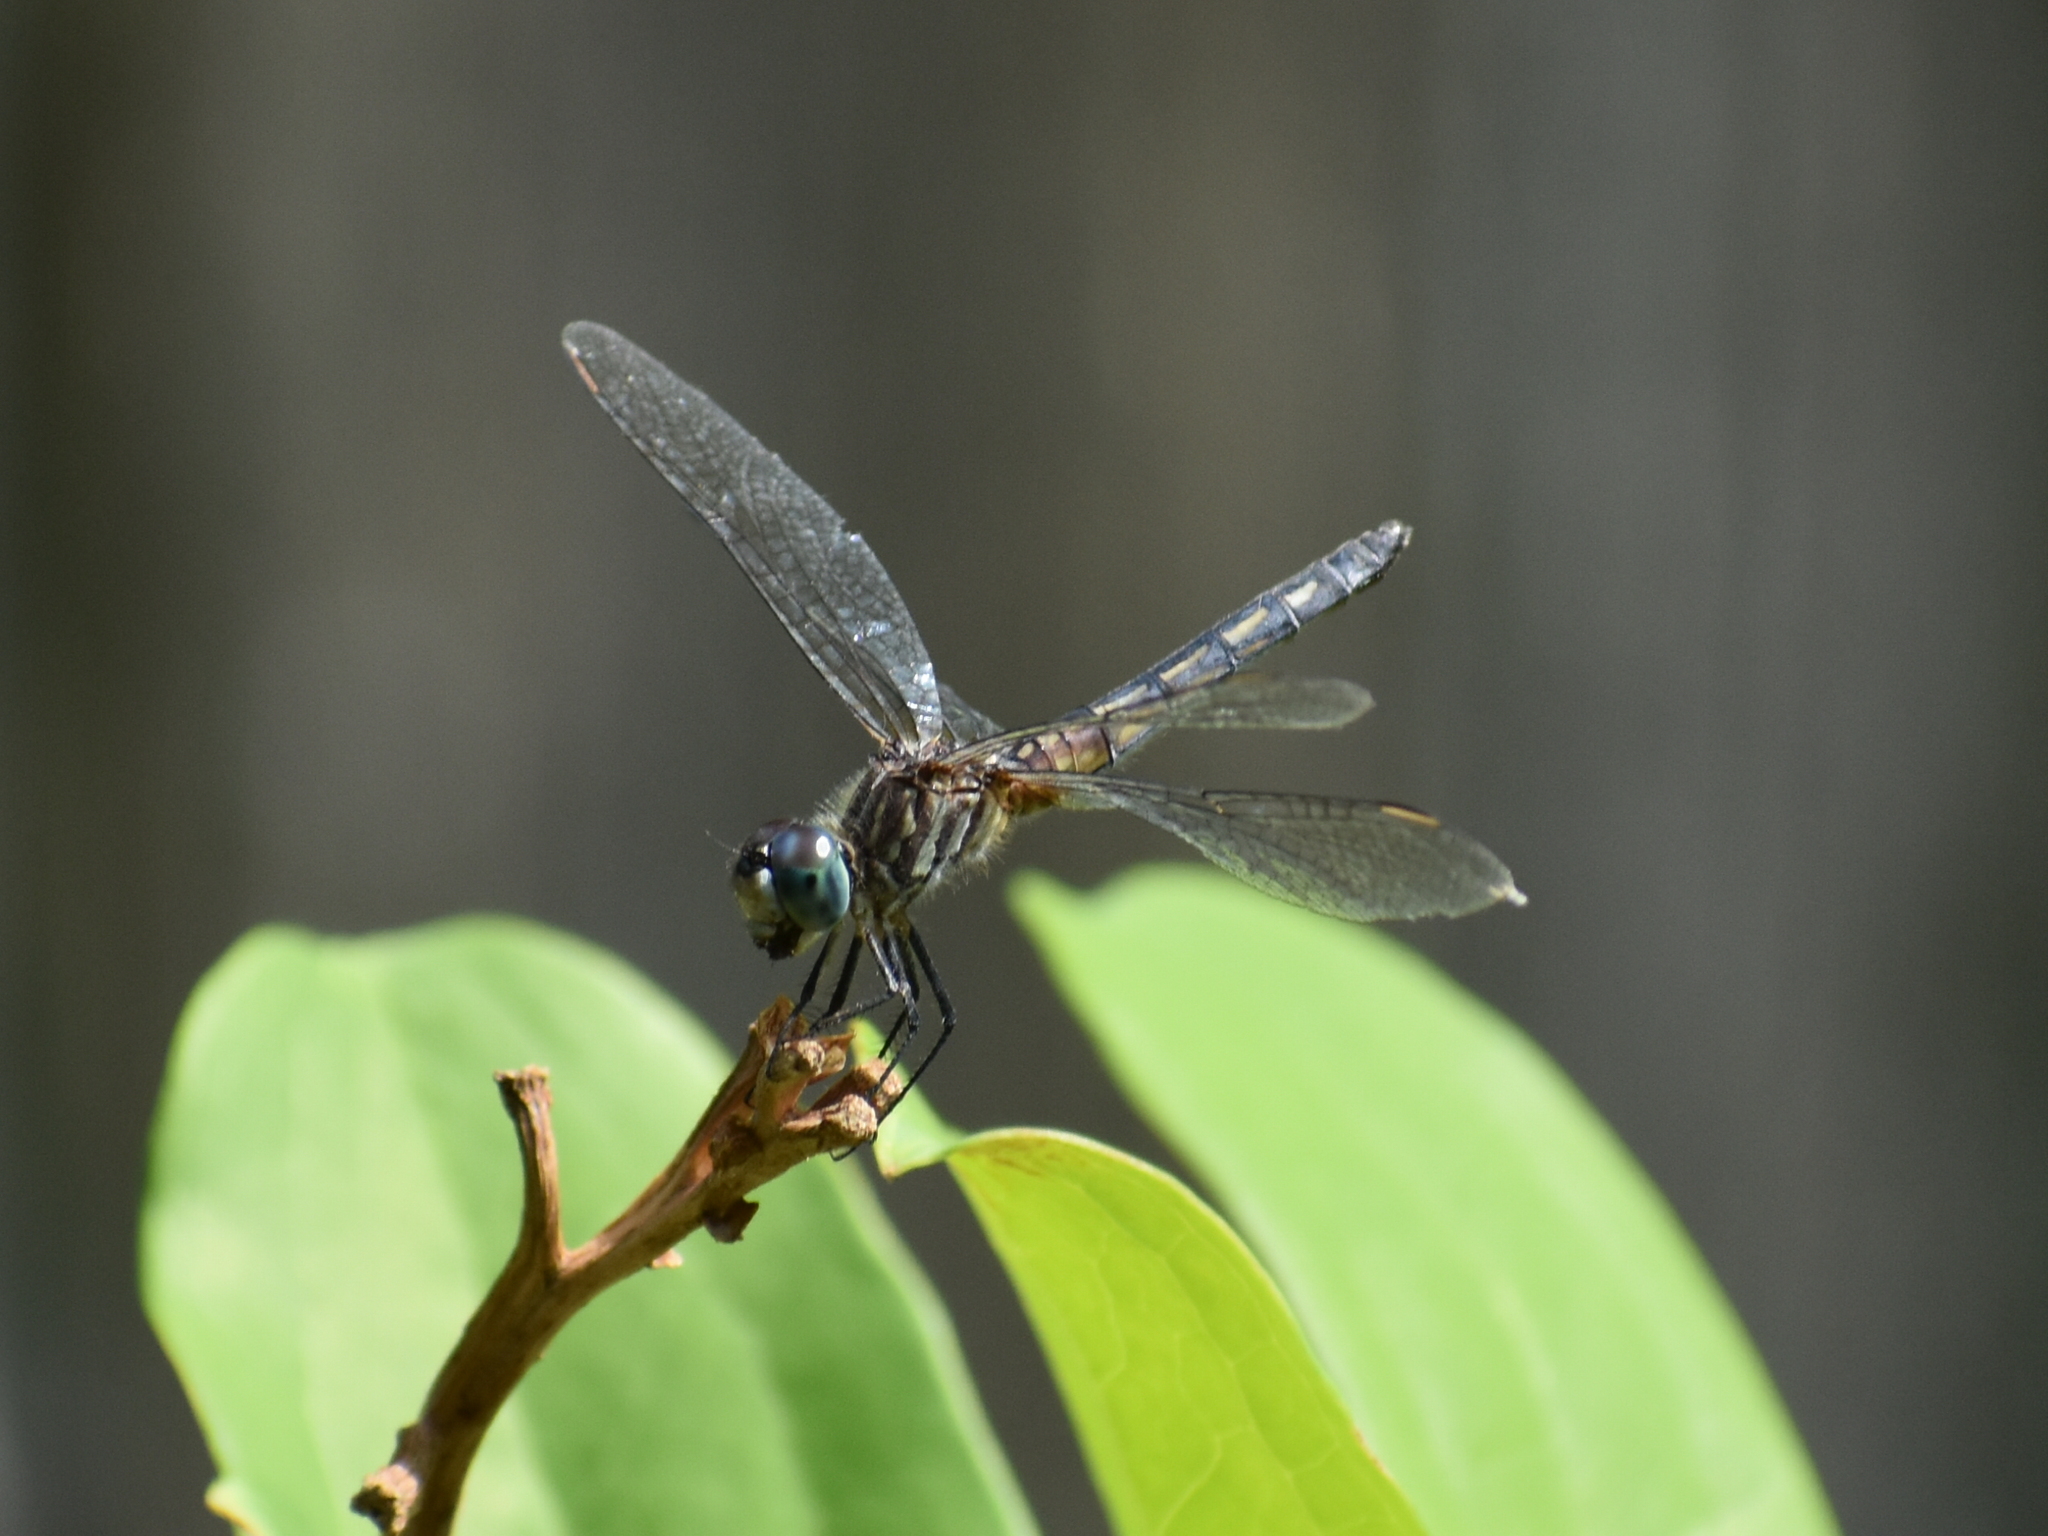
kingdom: Animalia
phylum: Arthropoda
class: Insecta
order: Odonata
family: Libellulidae
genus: Pachydiplax
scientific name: Pachydiplax longipennis
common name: Blue dasher
